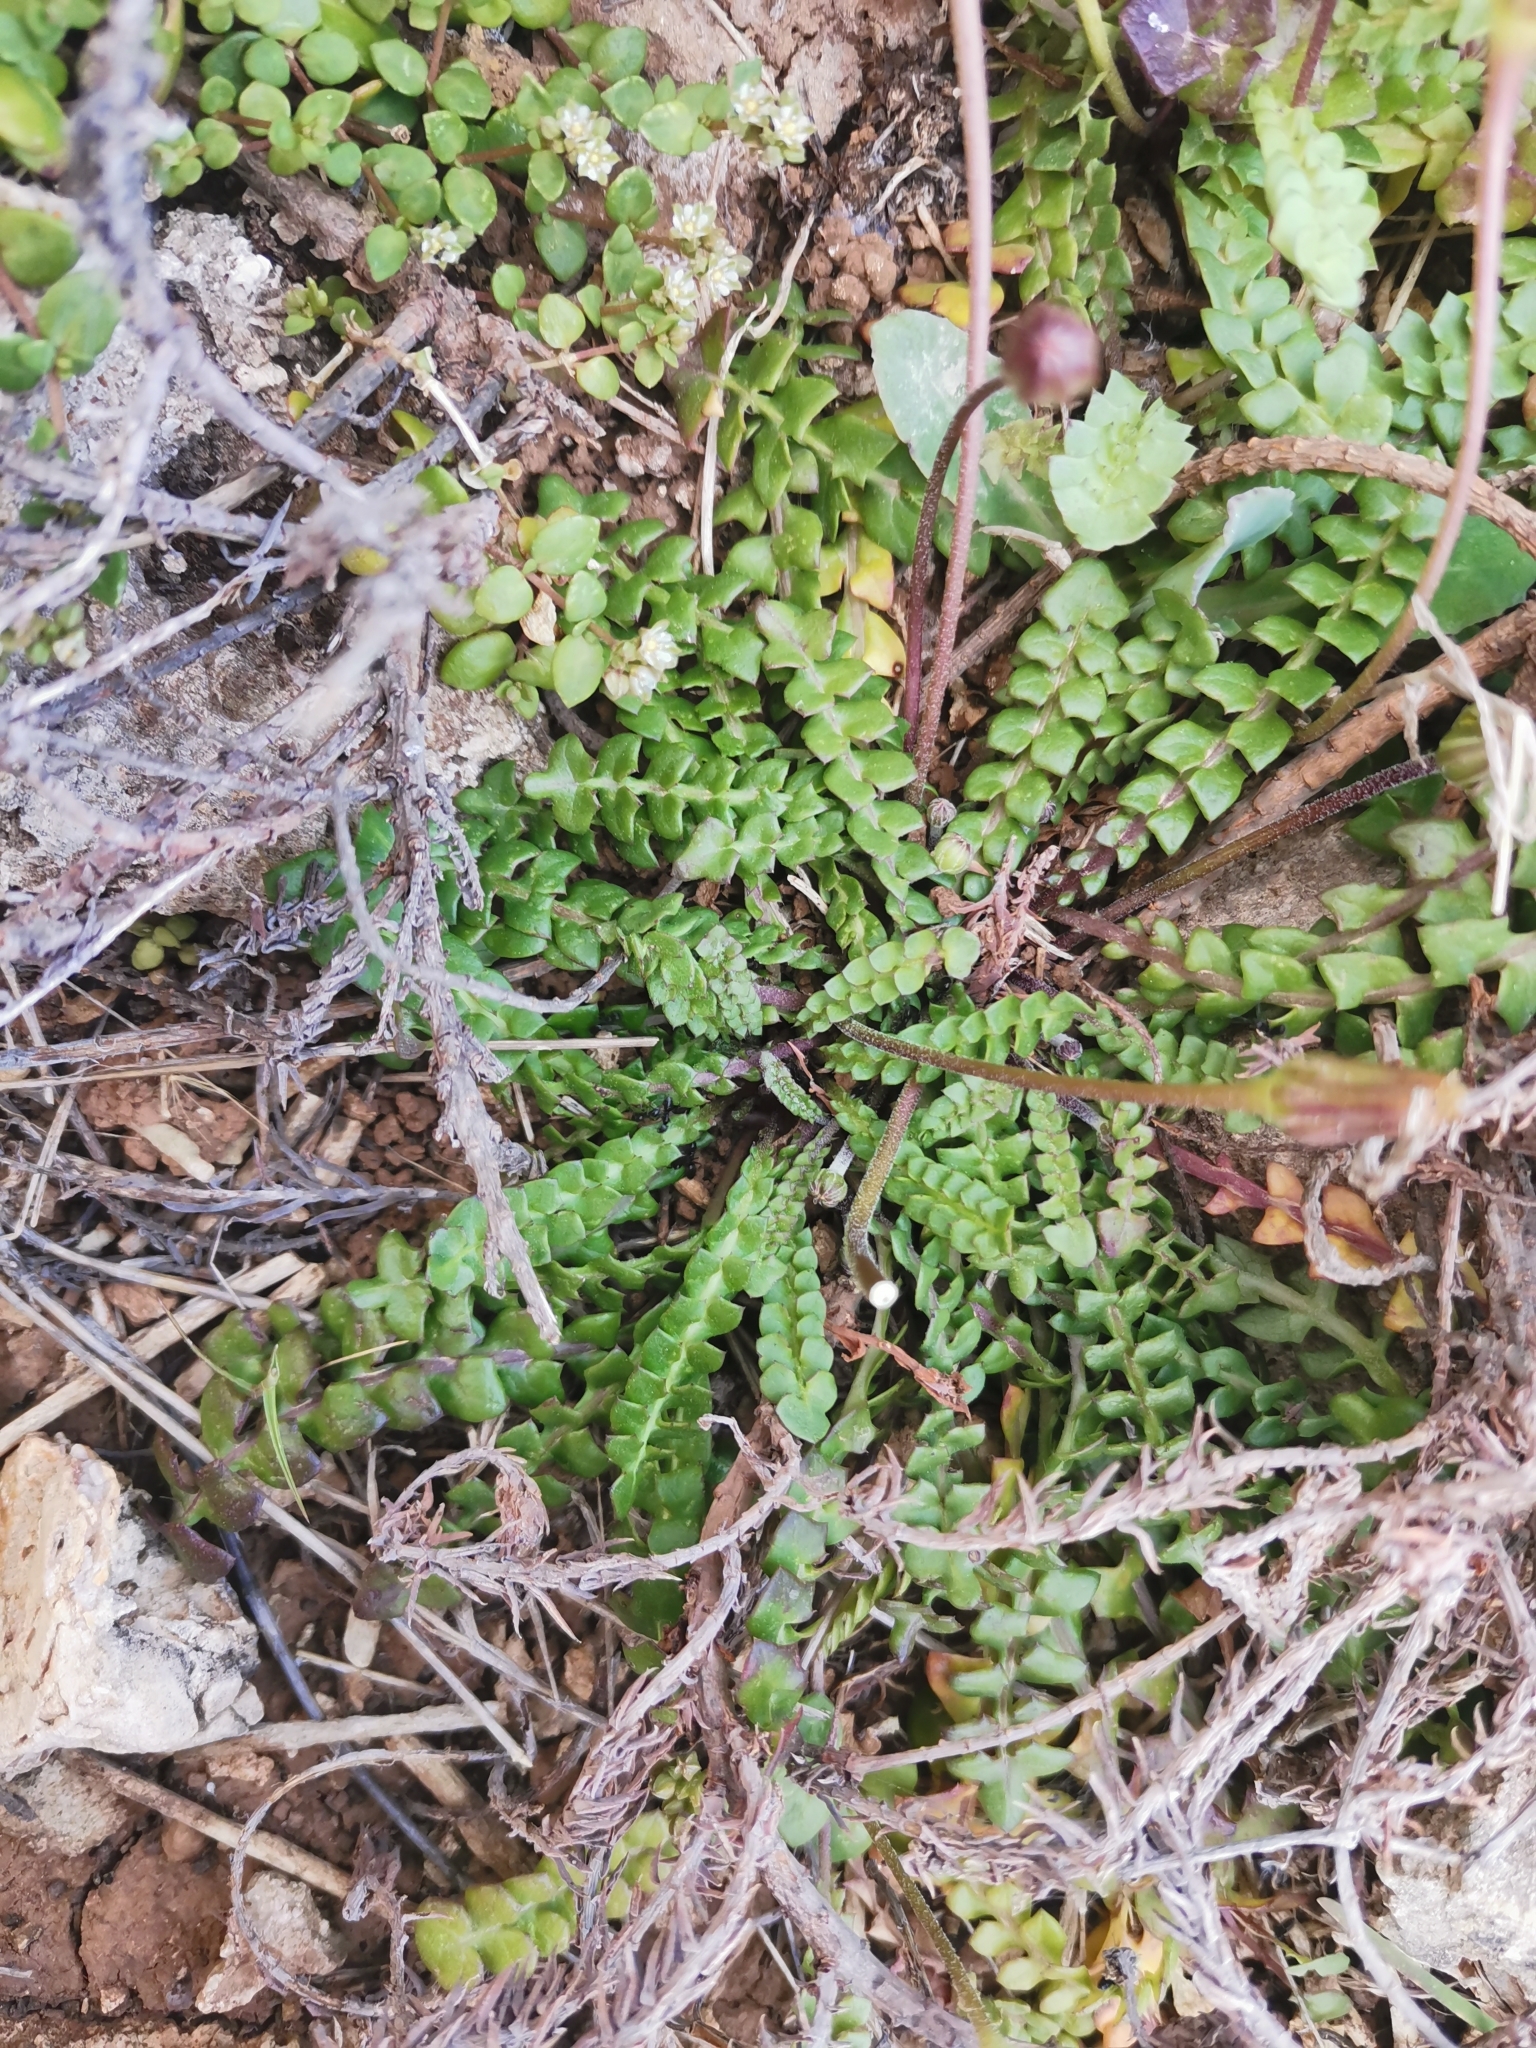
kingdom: Plantae
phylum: Tracheophyta
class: Magnoliopsida
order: Asterales
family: Asteraceae
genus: Hyoseris
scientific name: Hyoseris radiata
